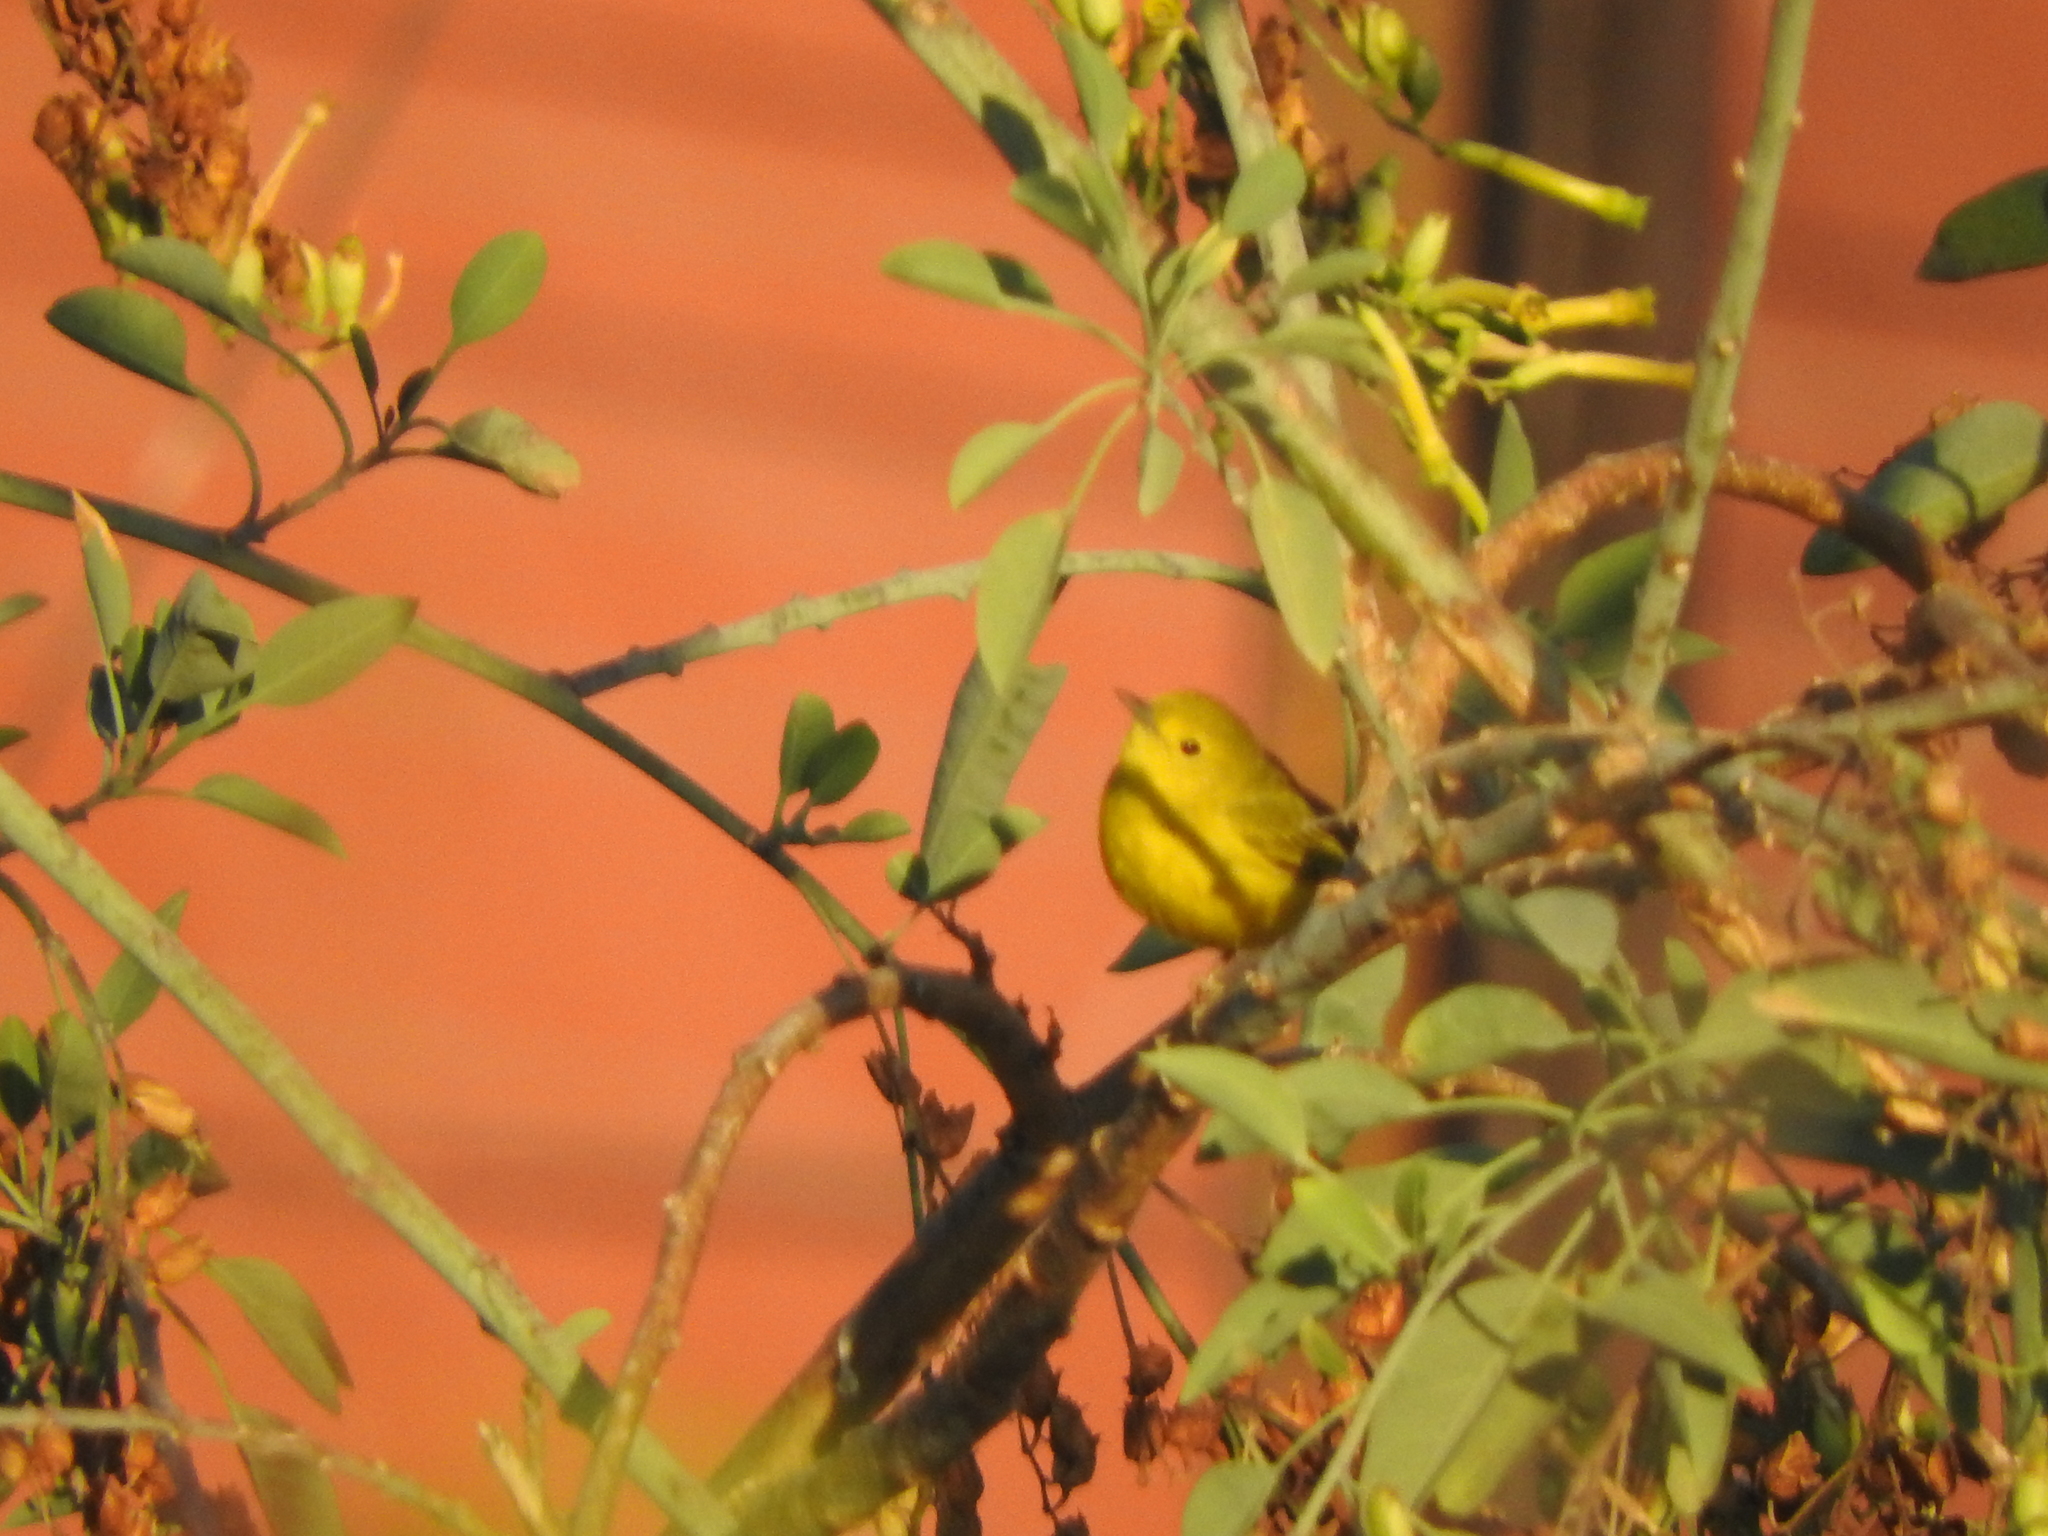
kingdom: Animalia
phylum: Chordata
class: Aves
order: Passeriformes
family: Parulidae
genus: Setophaga
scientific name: Setophaga petechia
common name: Yellow warbler
